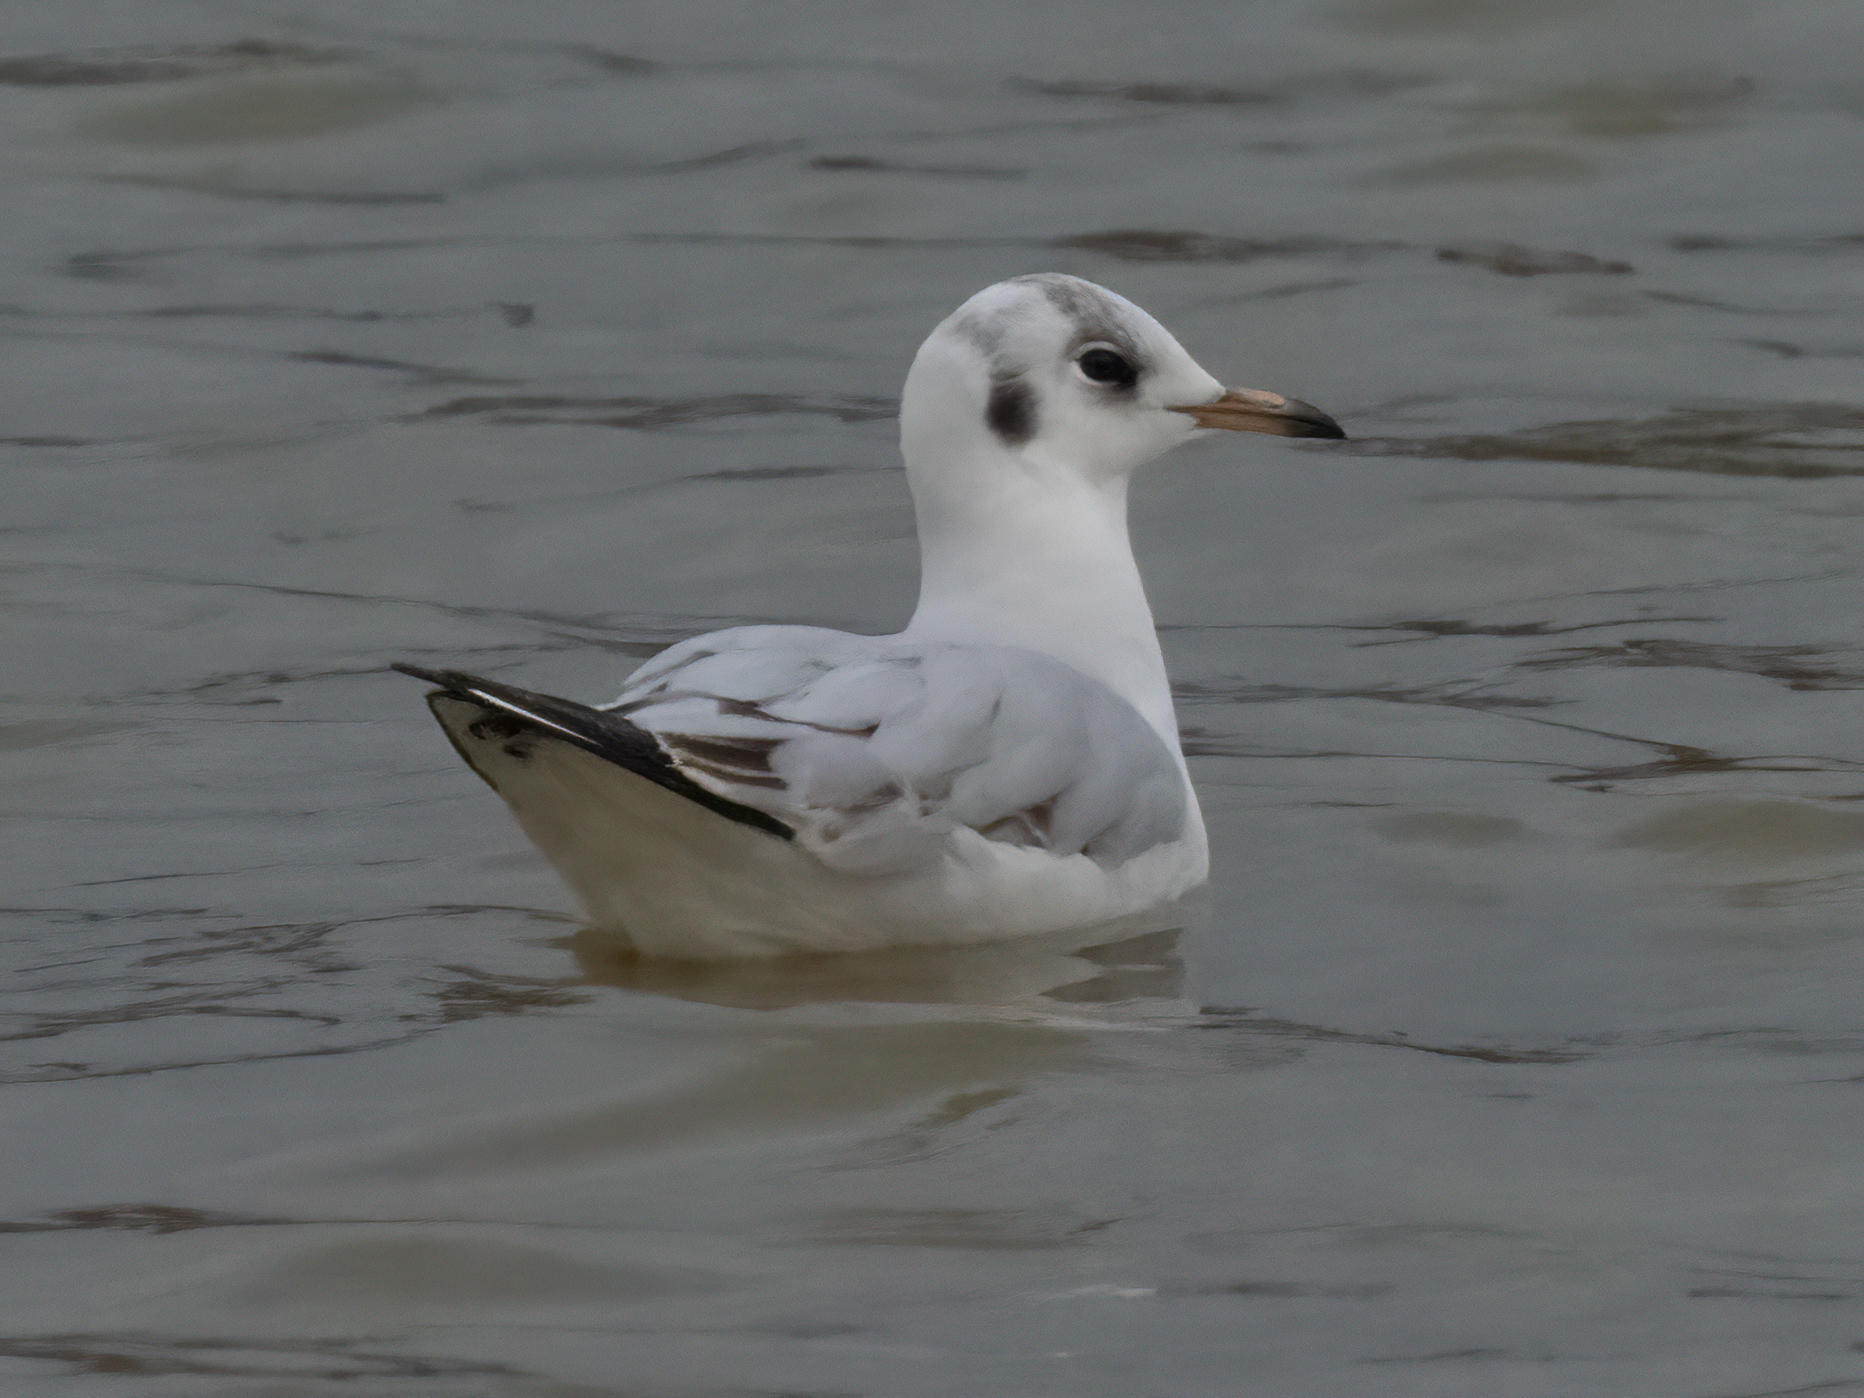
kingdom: Animalia
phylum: Chordata
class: Aves
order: Charadriiformes
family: Laridae
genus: Chroicocephalus
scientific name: Chroicocephalus ridibundus
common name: Black-headed gull
